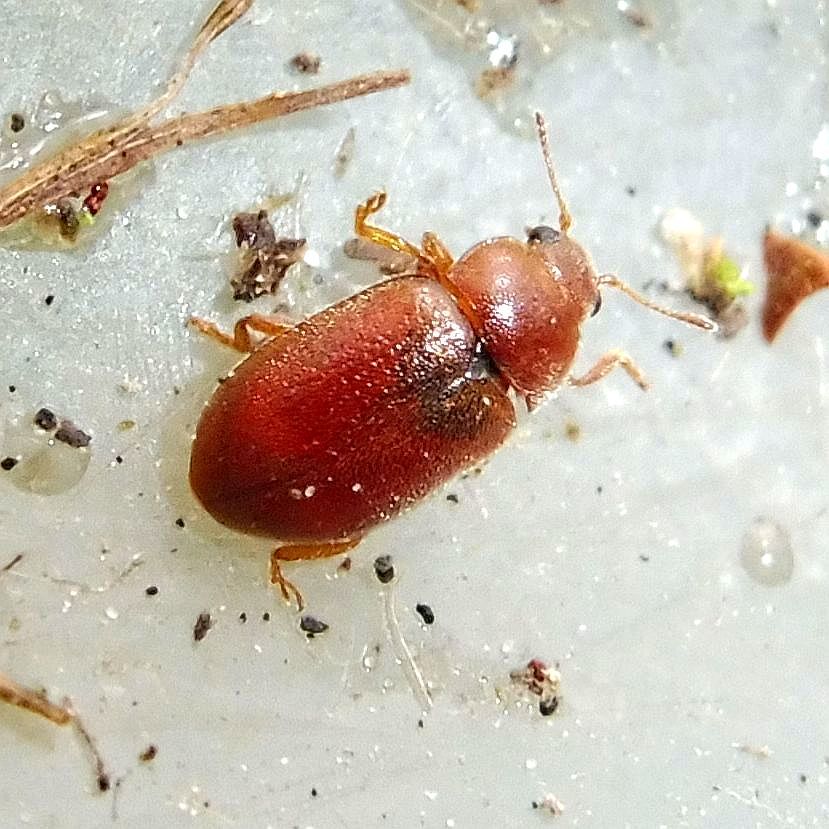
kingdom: Animalia
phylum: Arthropoda
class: Insecta
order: Coleoptera
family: Coccinellidae
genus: Coccidula
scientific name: Coccidula rufa
